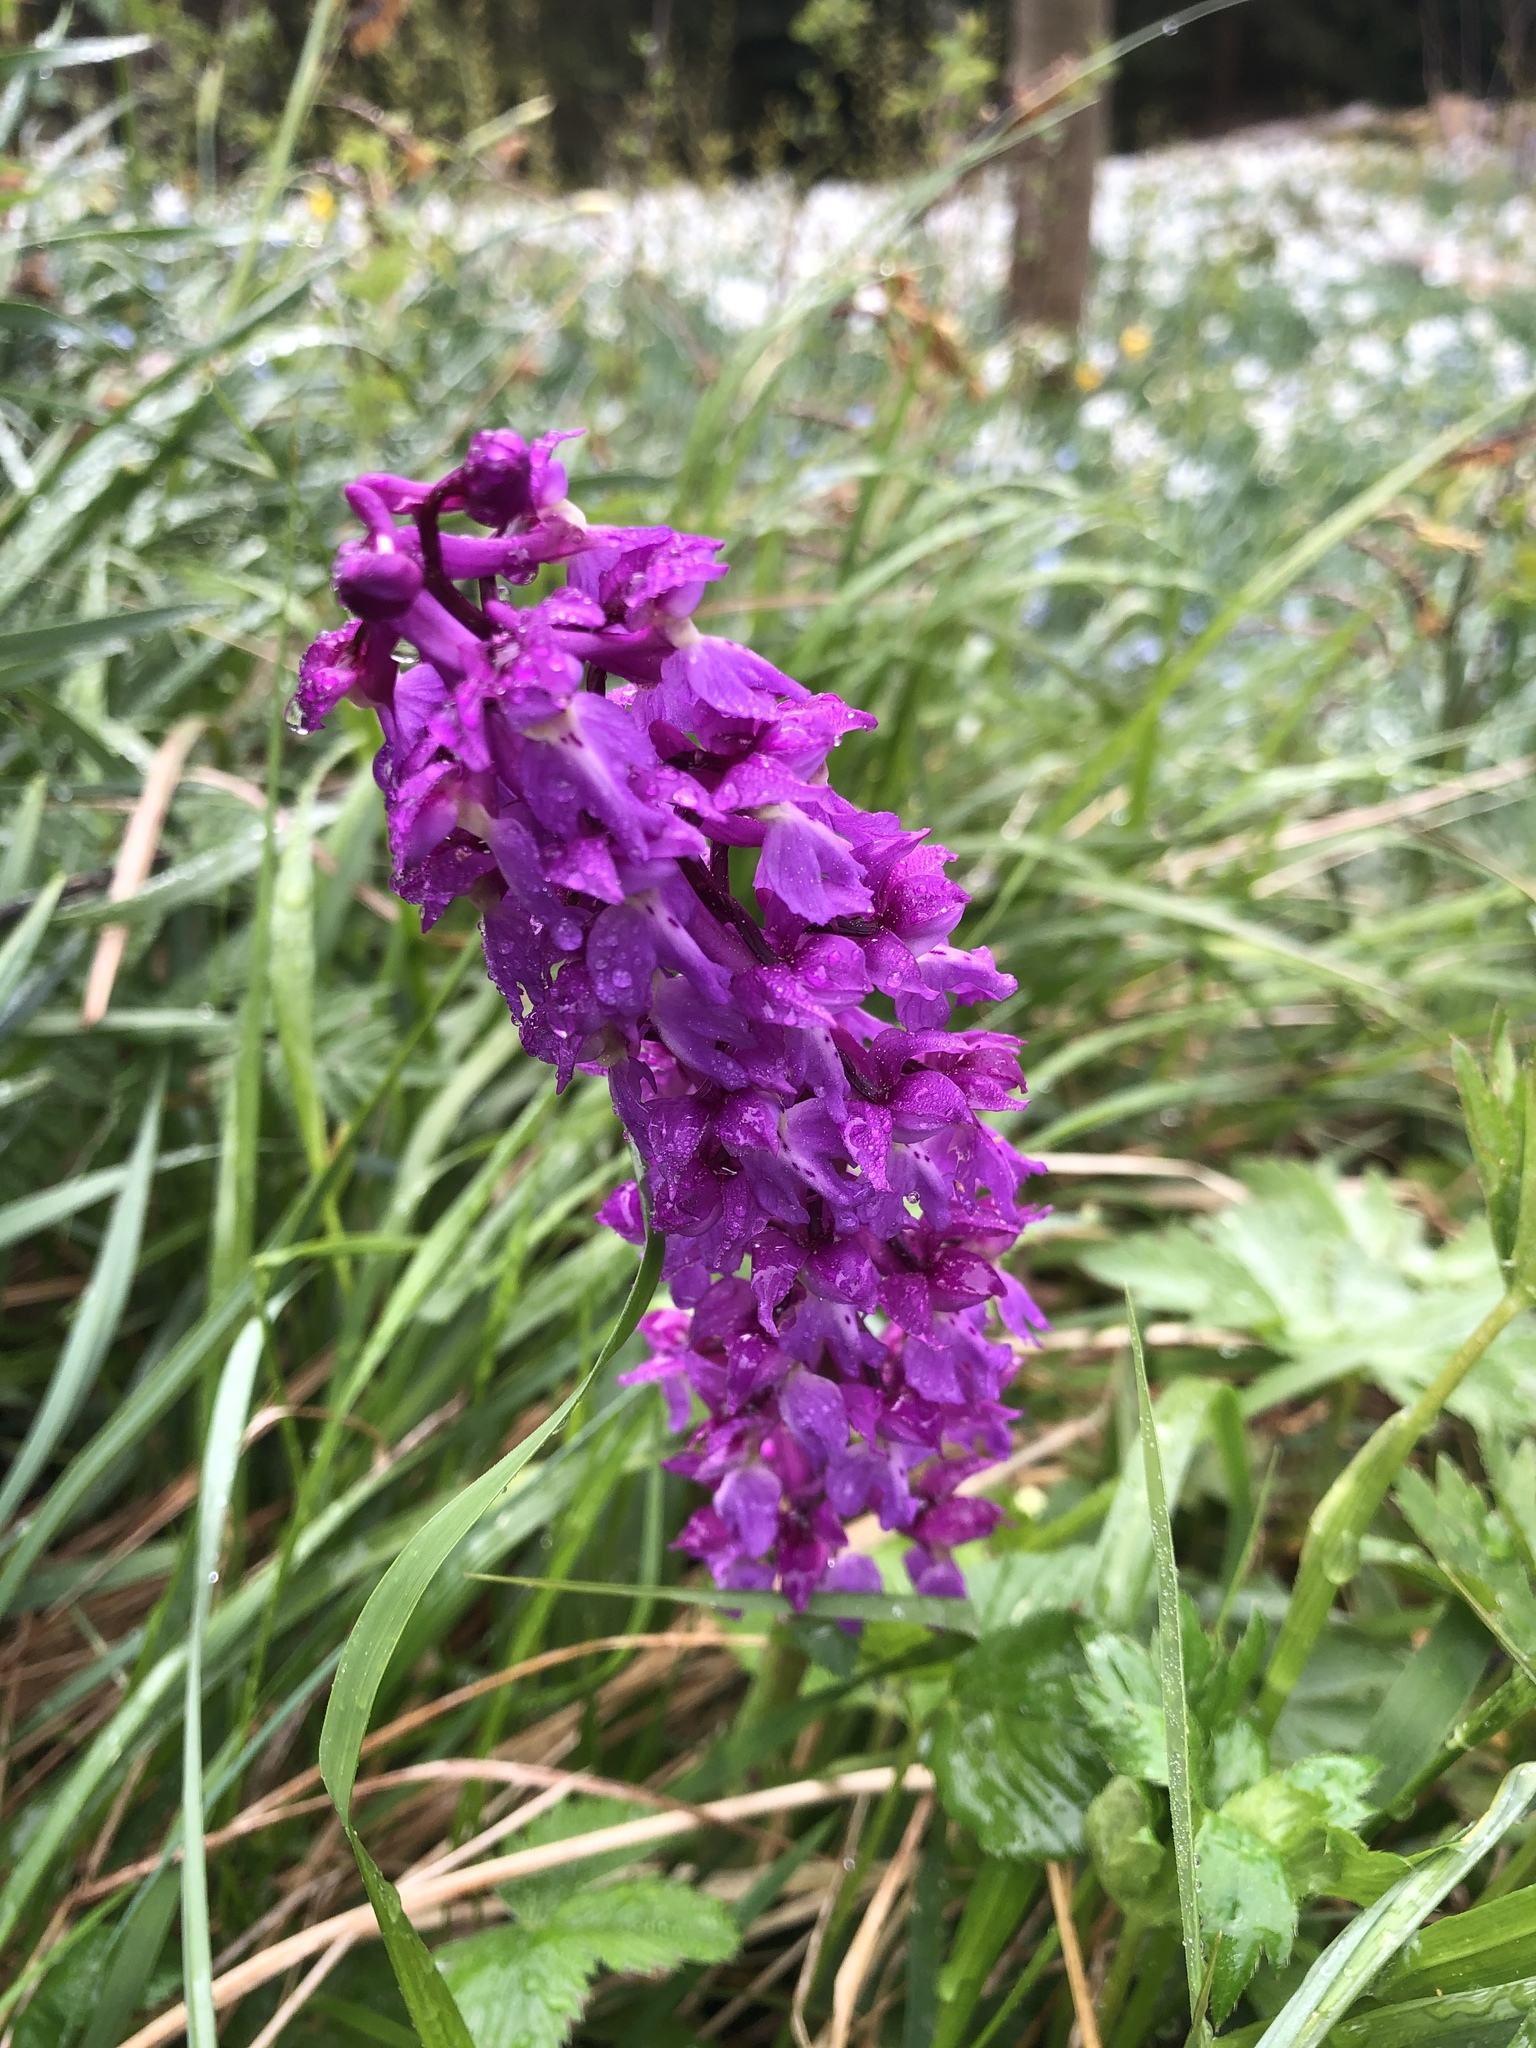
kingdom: Plantae
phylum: Tracheophyta
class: Liliopsida
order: Asparagales
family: Orchidaceae
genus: Orchis
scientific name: Orchis mascula
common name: Early-purple orchid
